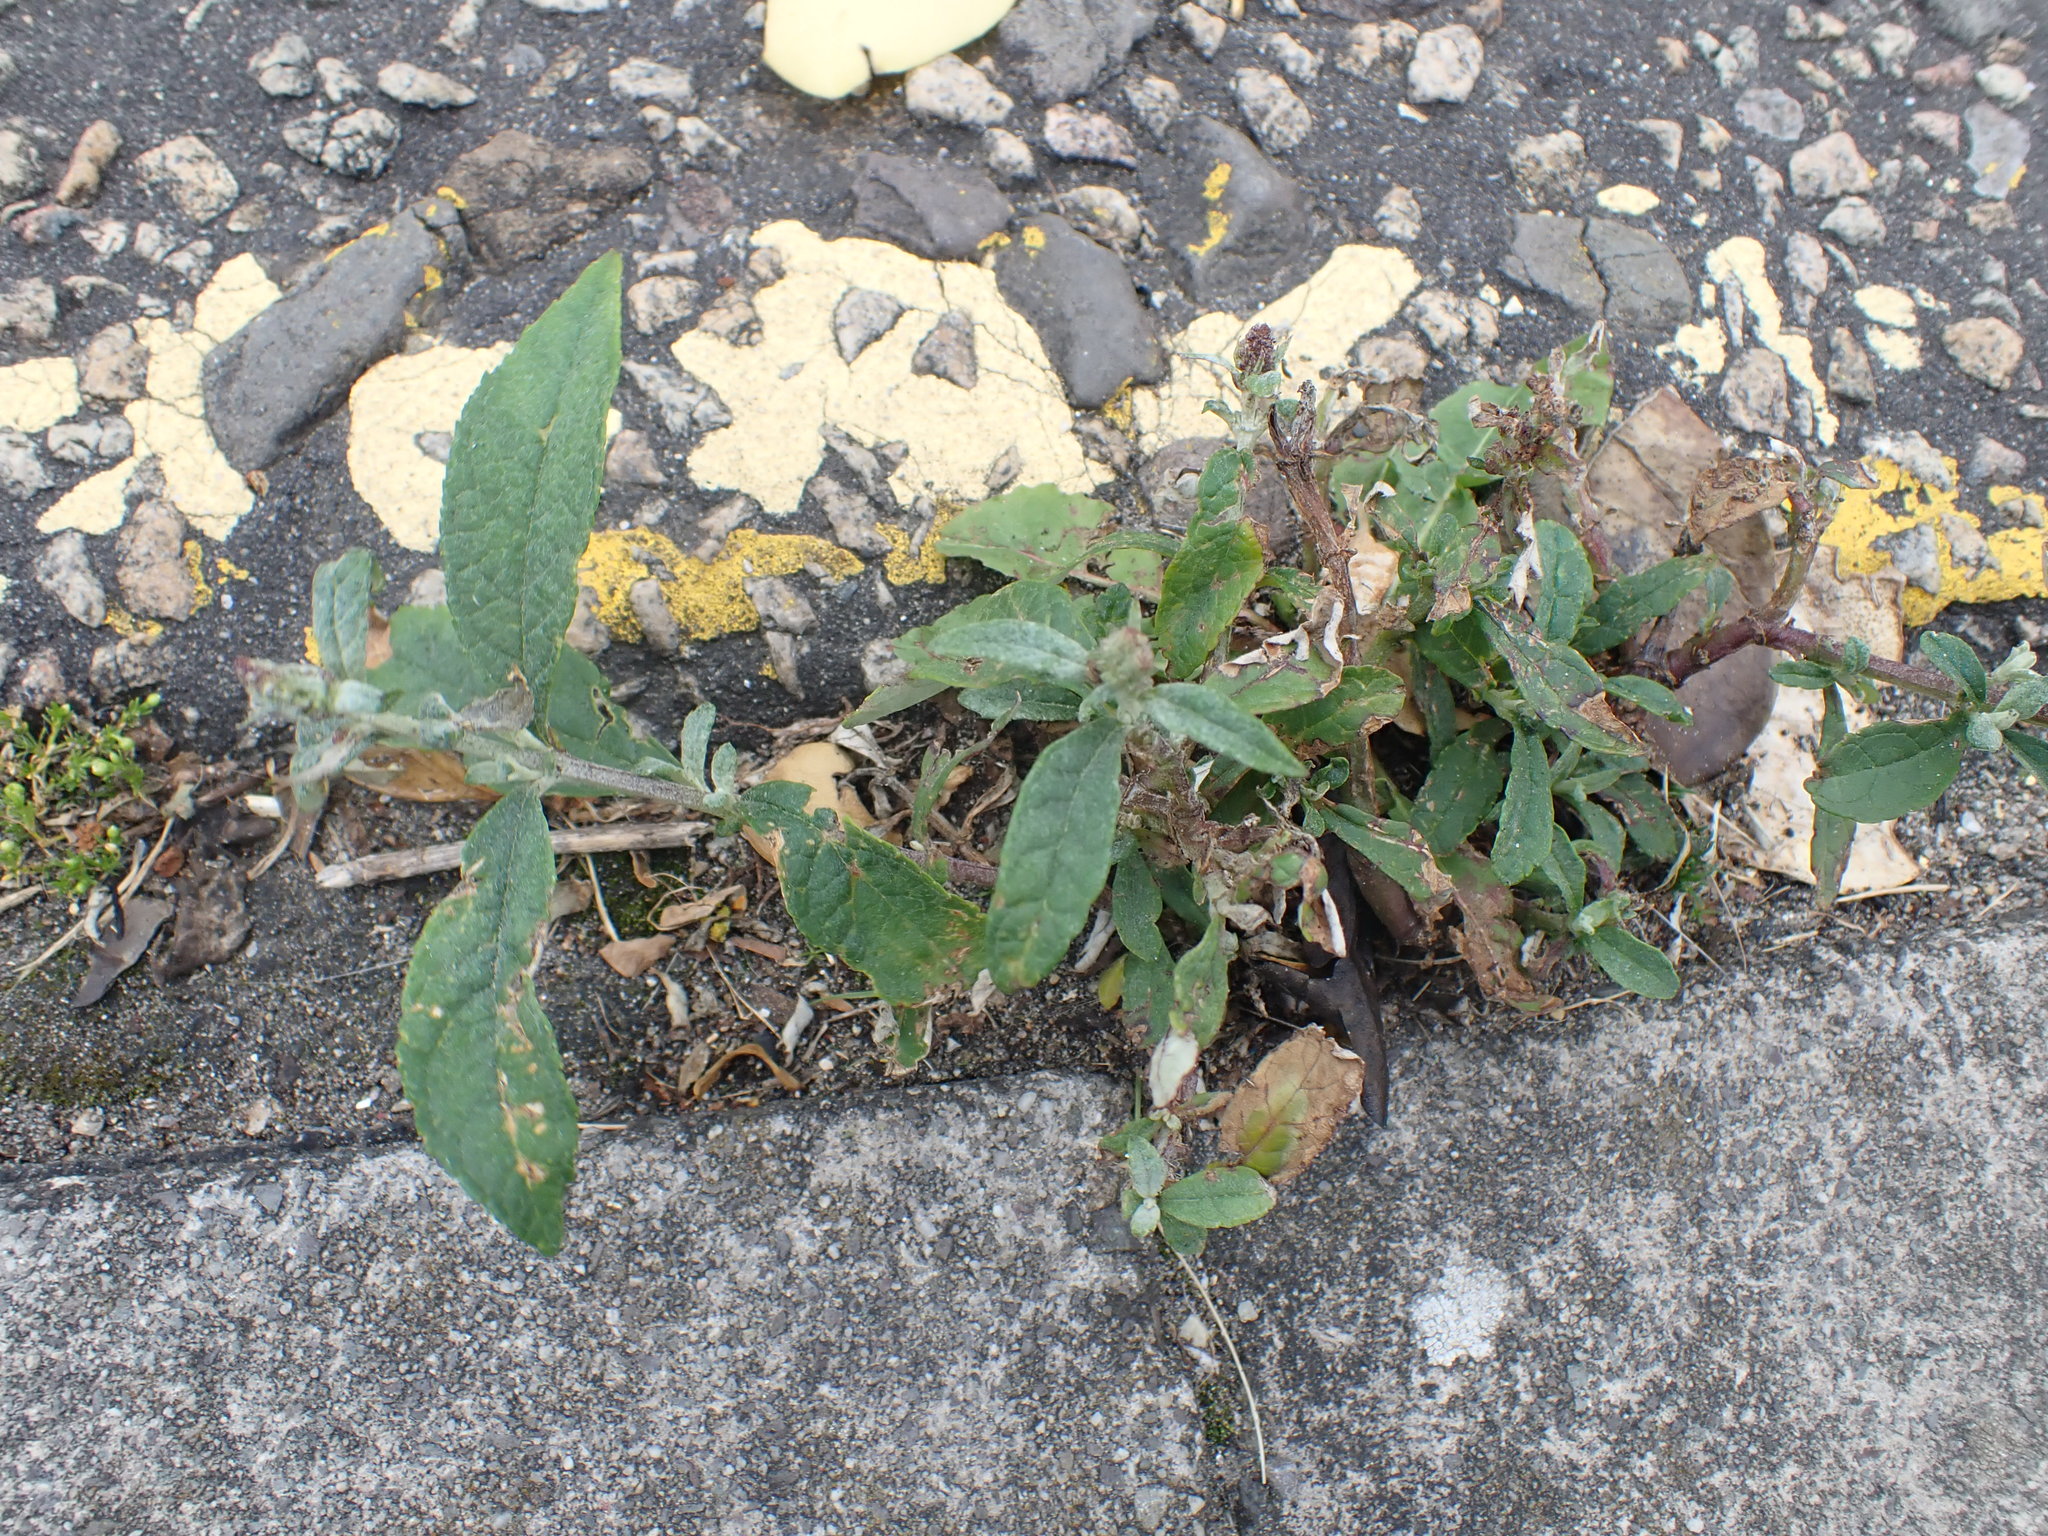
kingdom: Plantae
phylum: Tracheophyta
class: Magnoliopsida
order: Lamiales
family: Scrophulariaceae
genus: Buddleja
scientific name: Buddleja davidii
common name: Butterfly-bush
